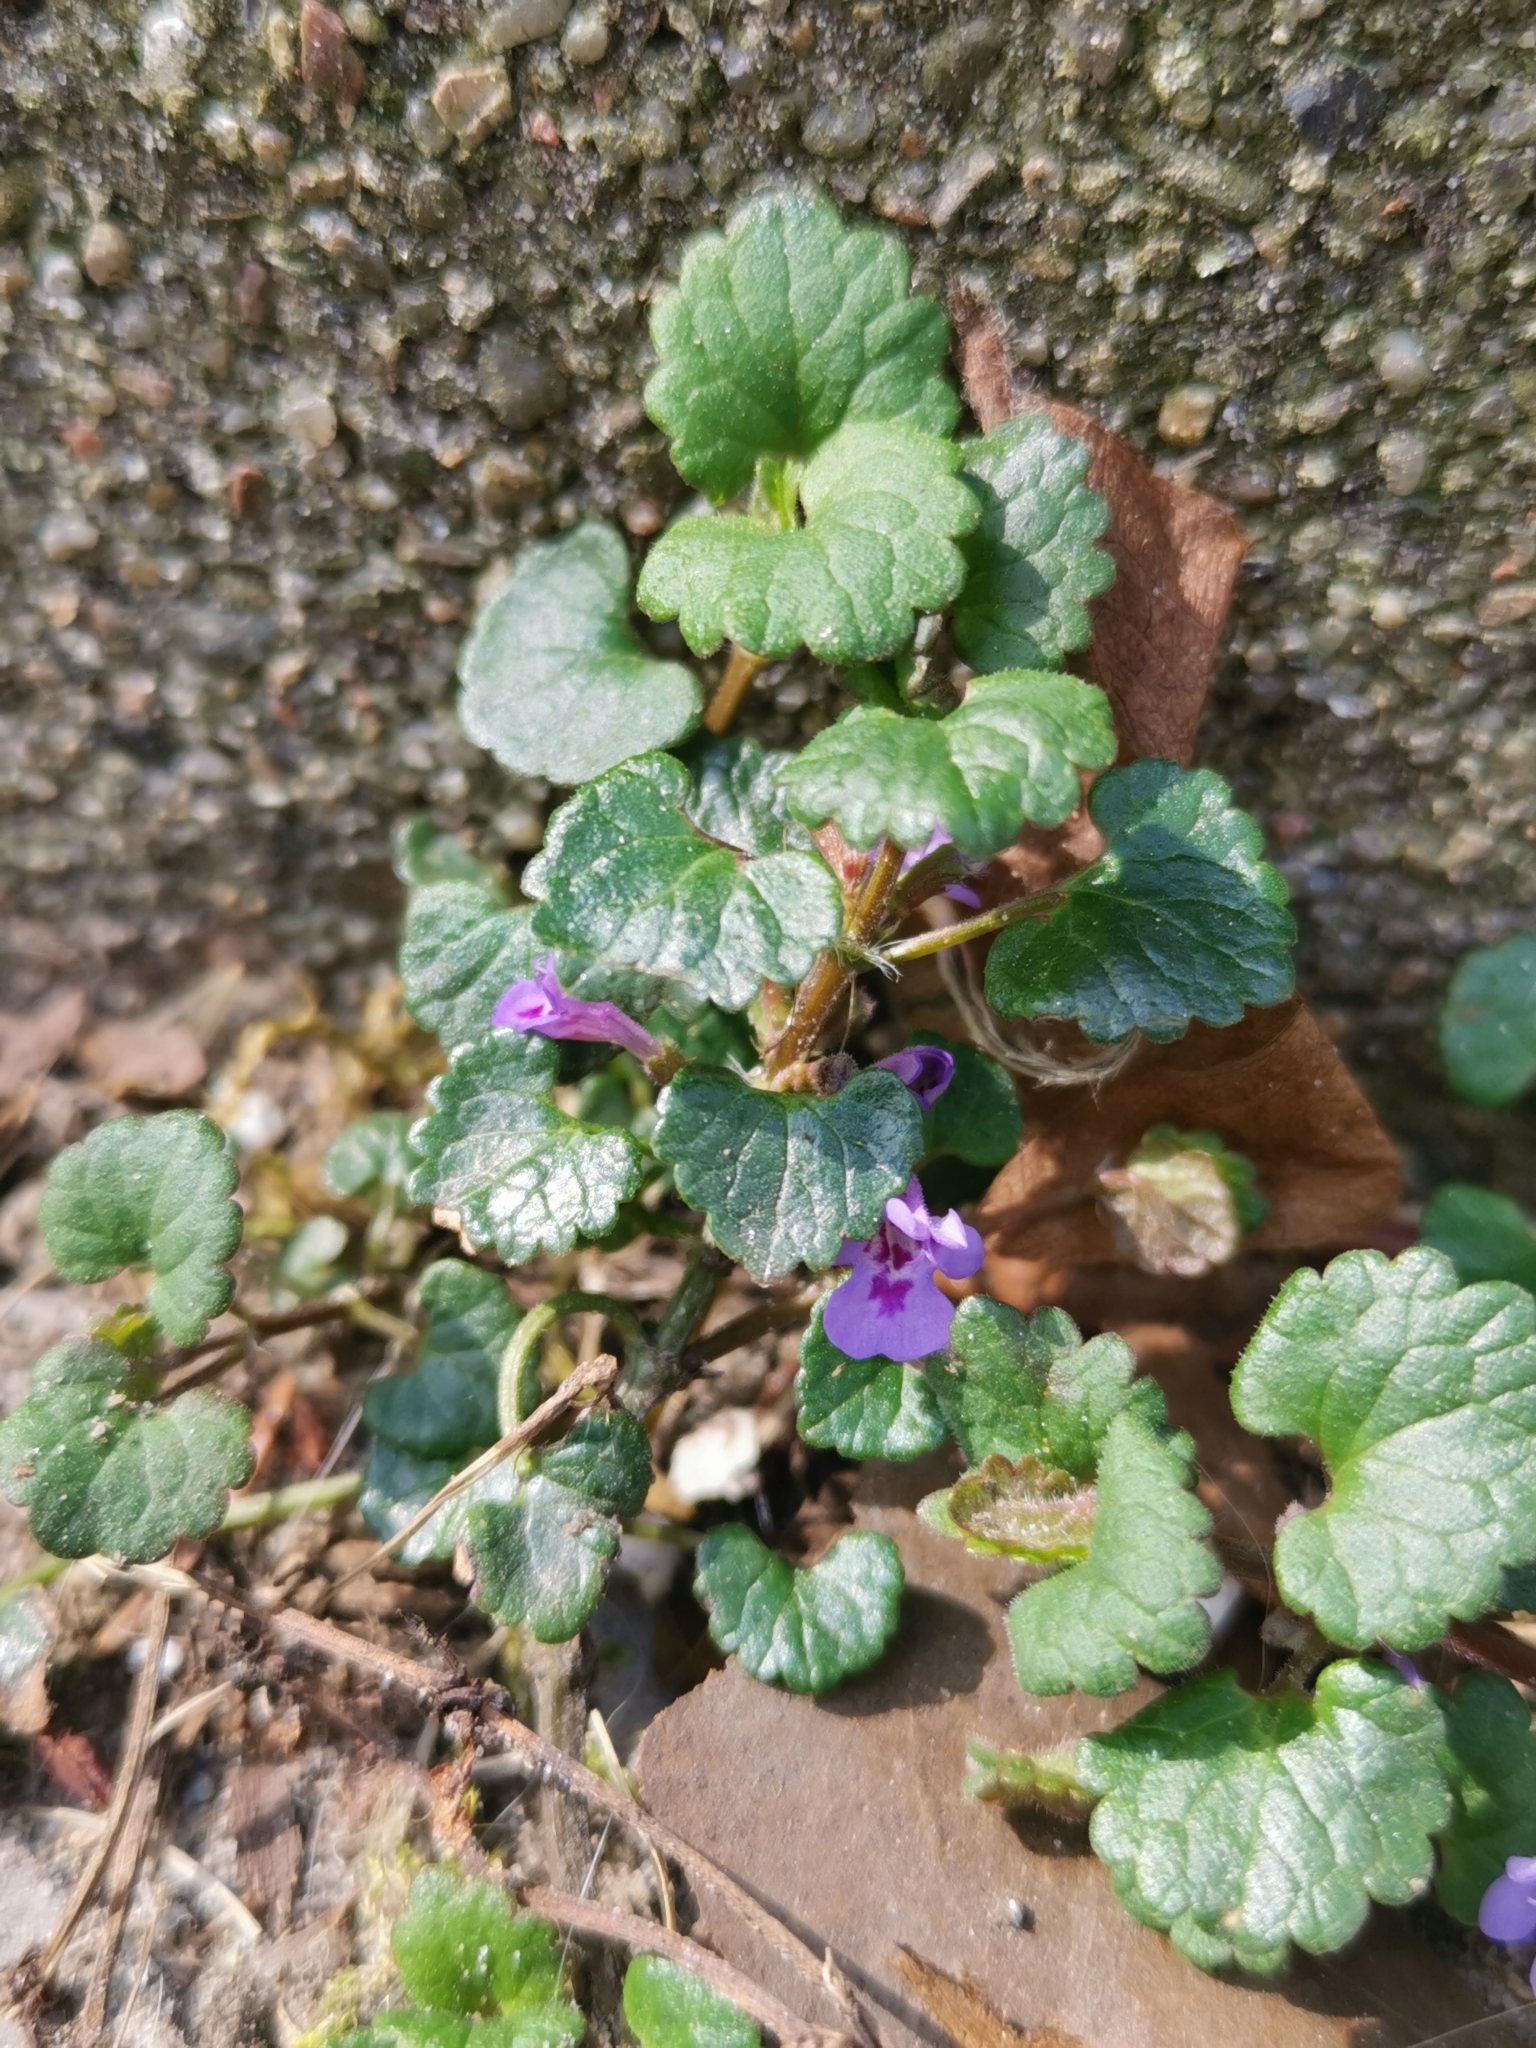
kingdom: Plantae
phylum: Tracheophyta
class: Magnoliopsida
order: Lamiales
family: Lamiaceae
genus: Glechoma
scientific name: Glechoma hederacea
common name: Ground ivy
